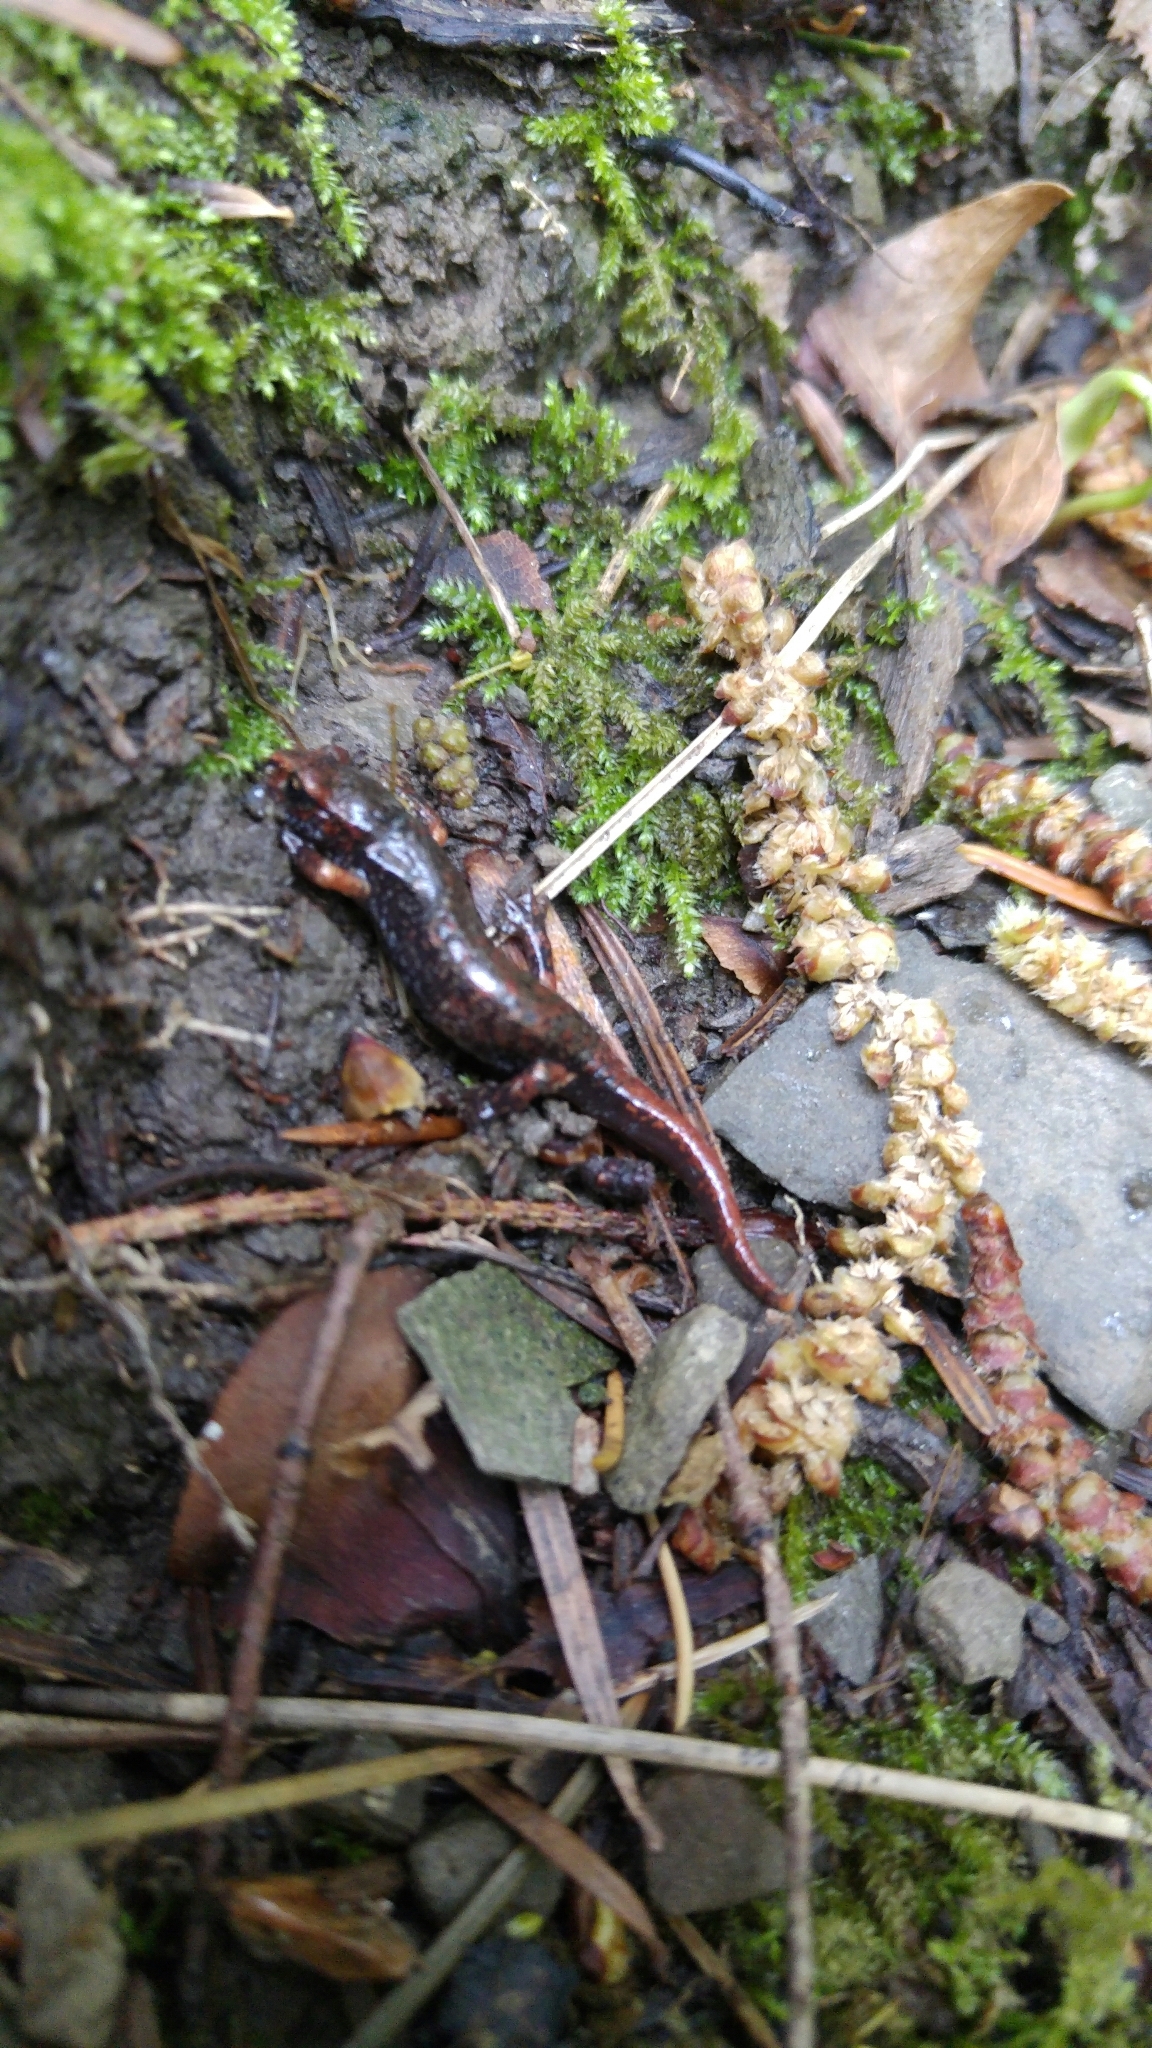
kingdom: Animalia
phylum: Chordata
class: Amphibia
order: Caudata
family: Plethodontidae
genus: Speleomantes
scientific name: Speleomantes italicus
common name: Italian cave salamander
